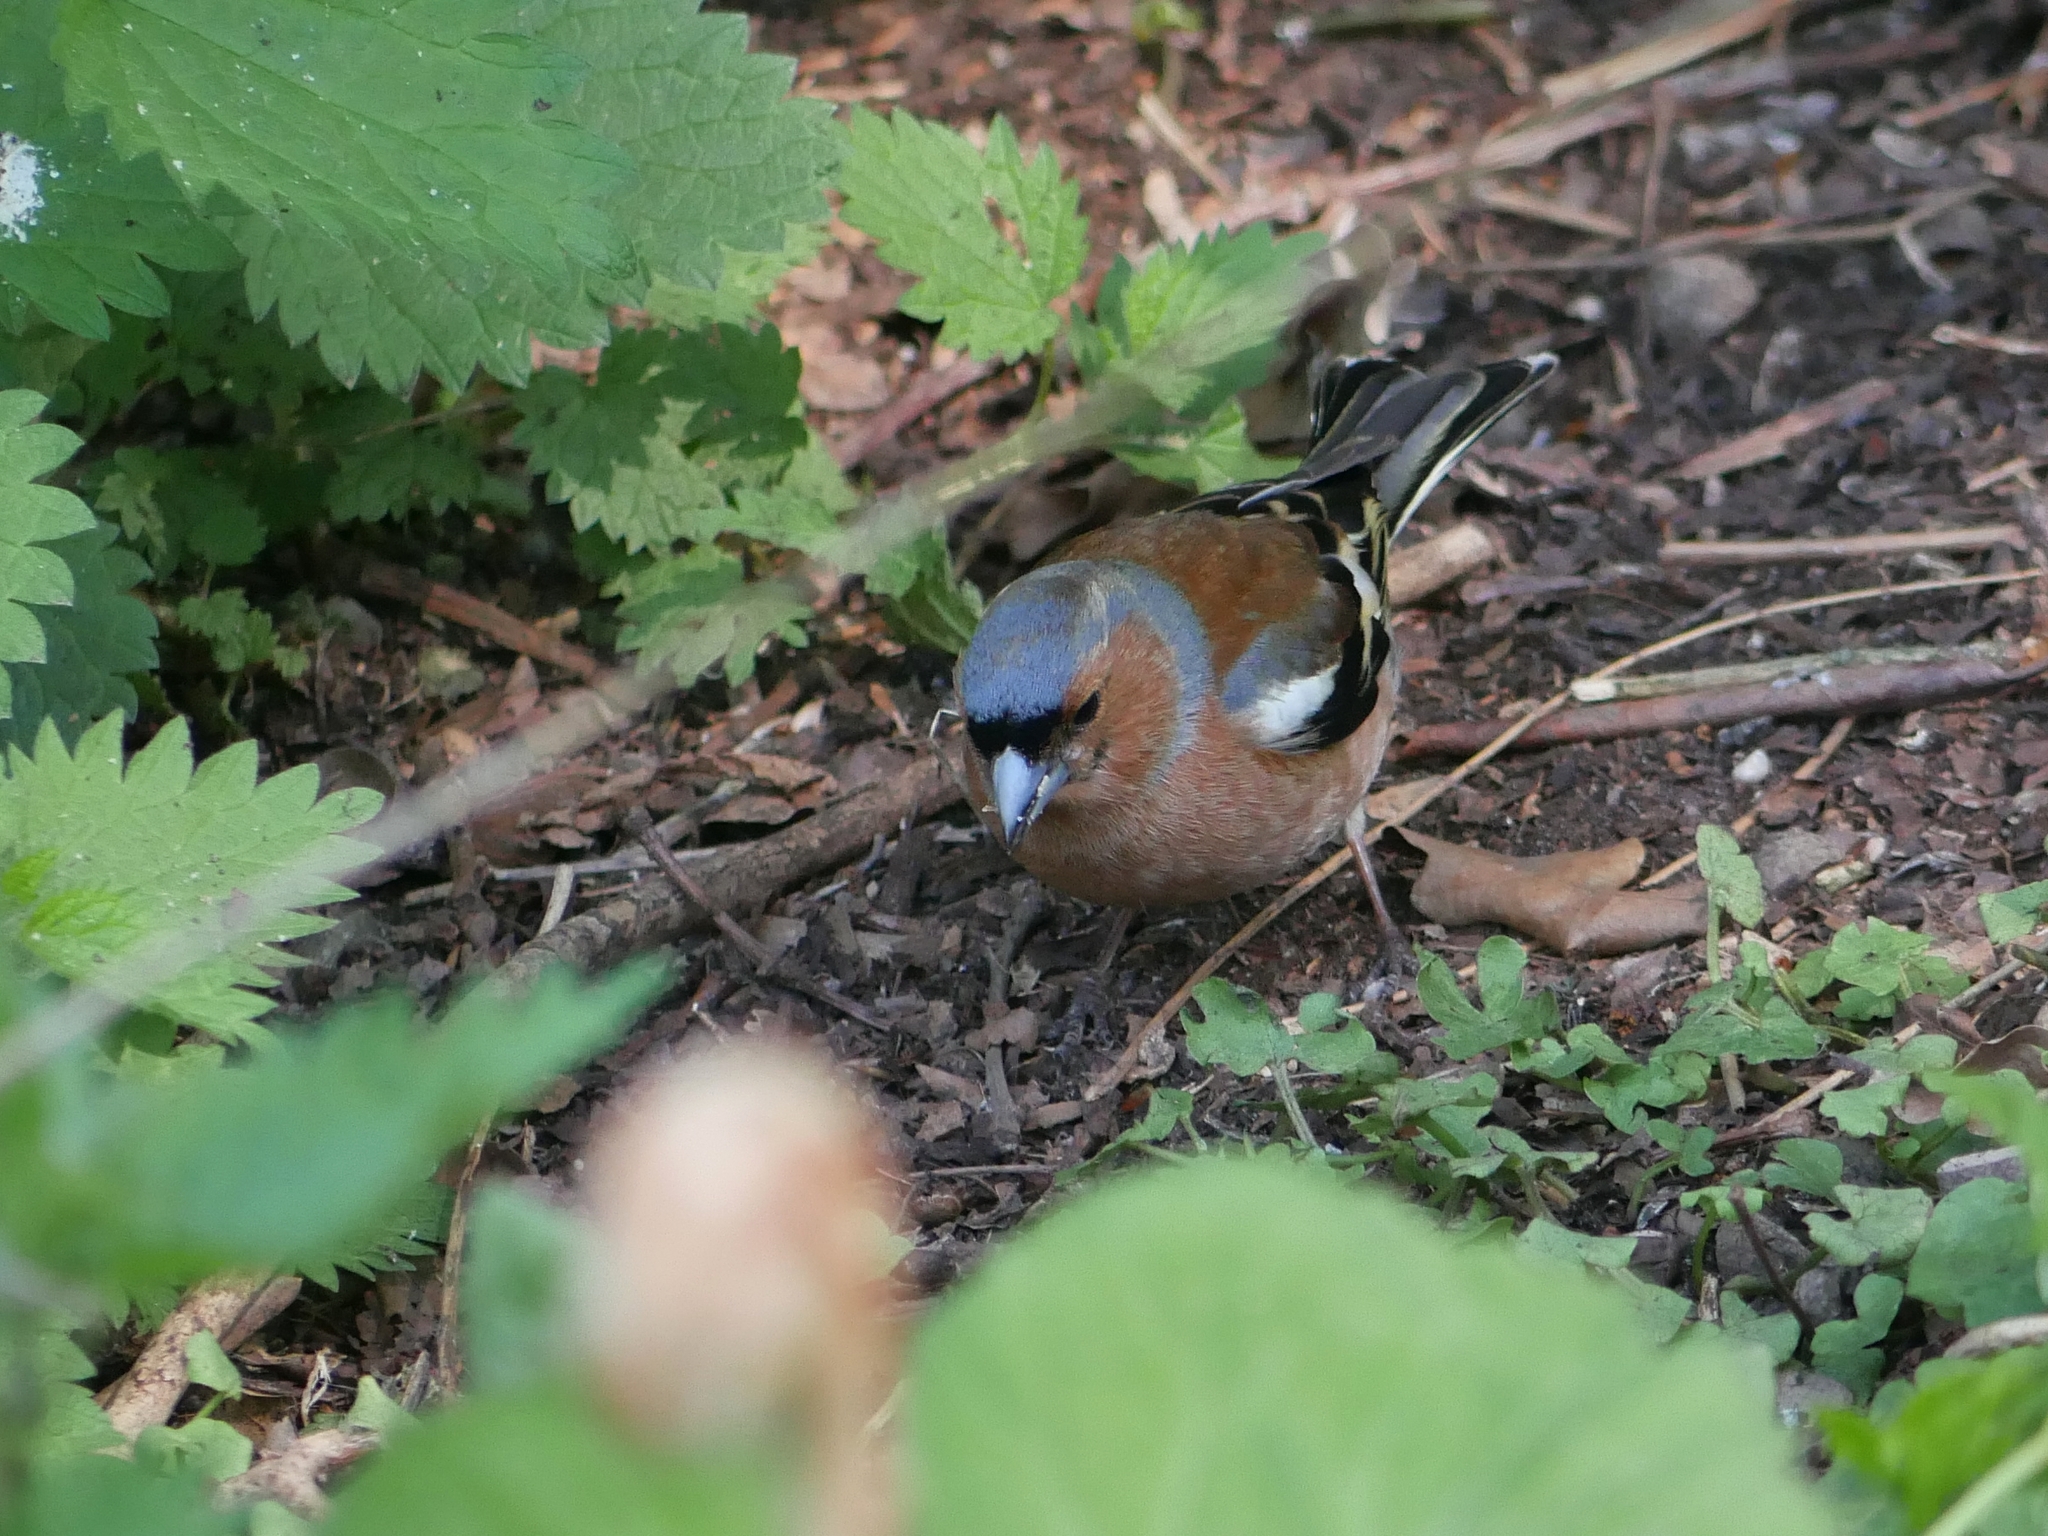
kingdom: Animalia
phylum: Chordata
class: Aves
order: Passeriformes
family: Fringillidae
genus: Fringilla
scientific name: Fringilla coelebs
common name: Common chaffinch
